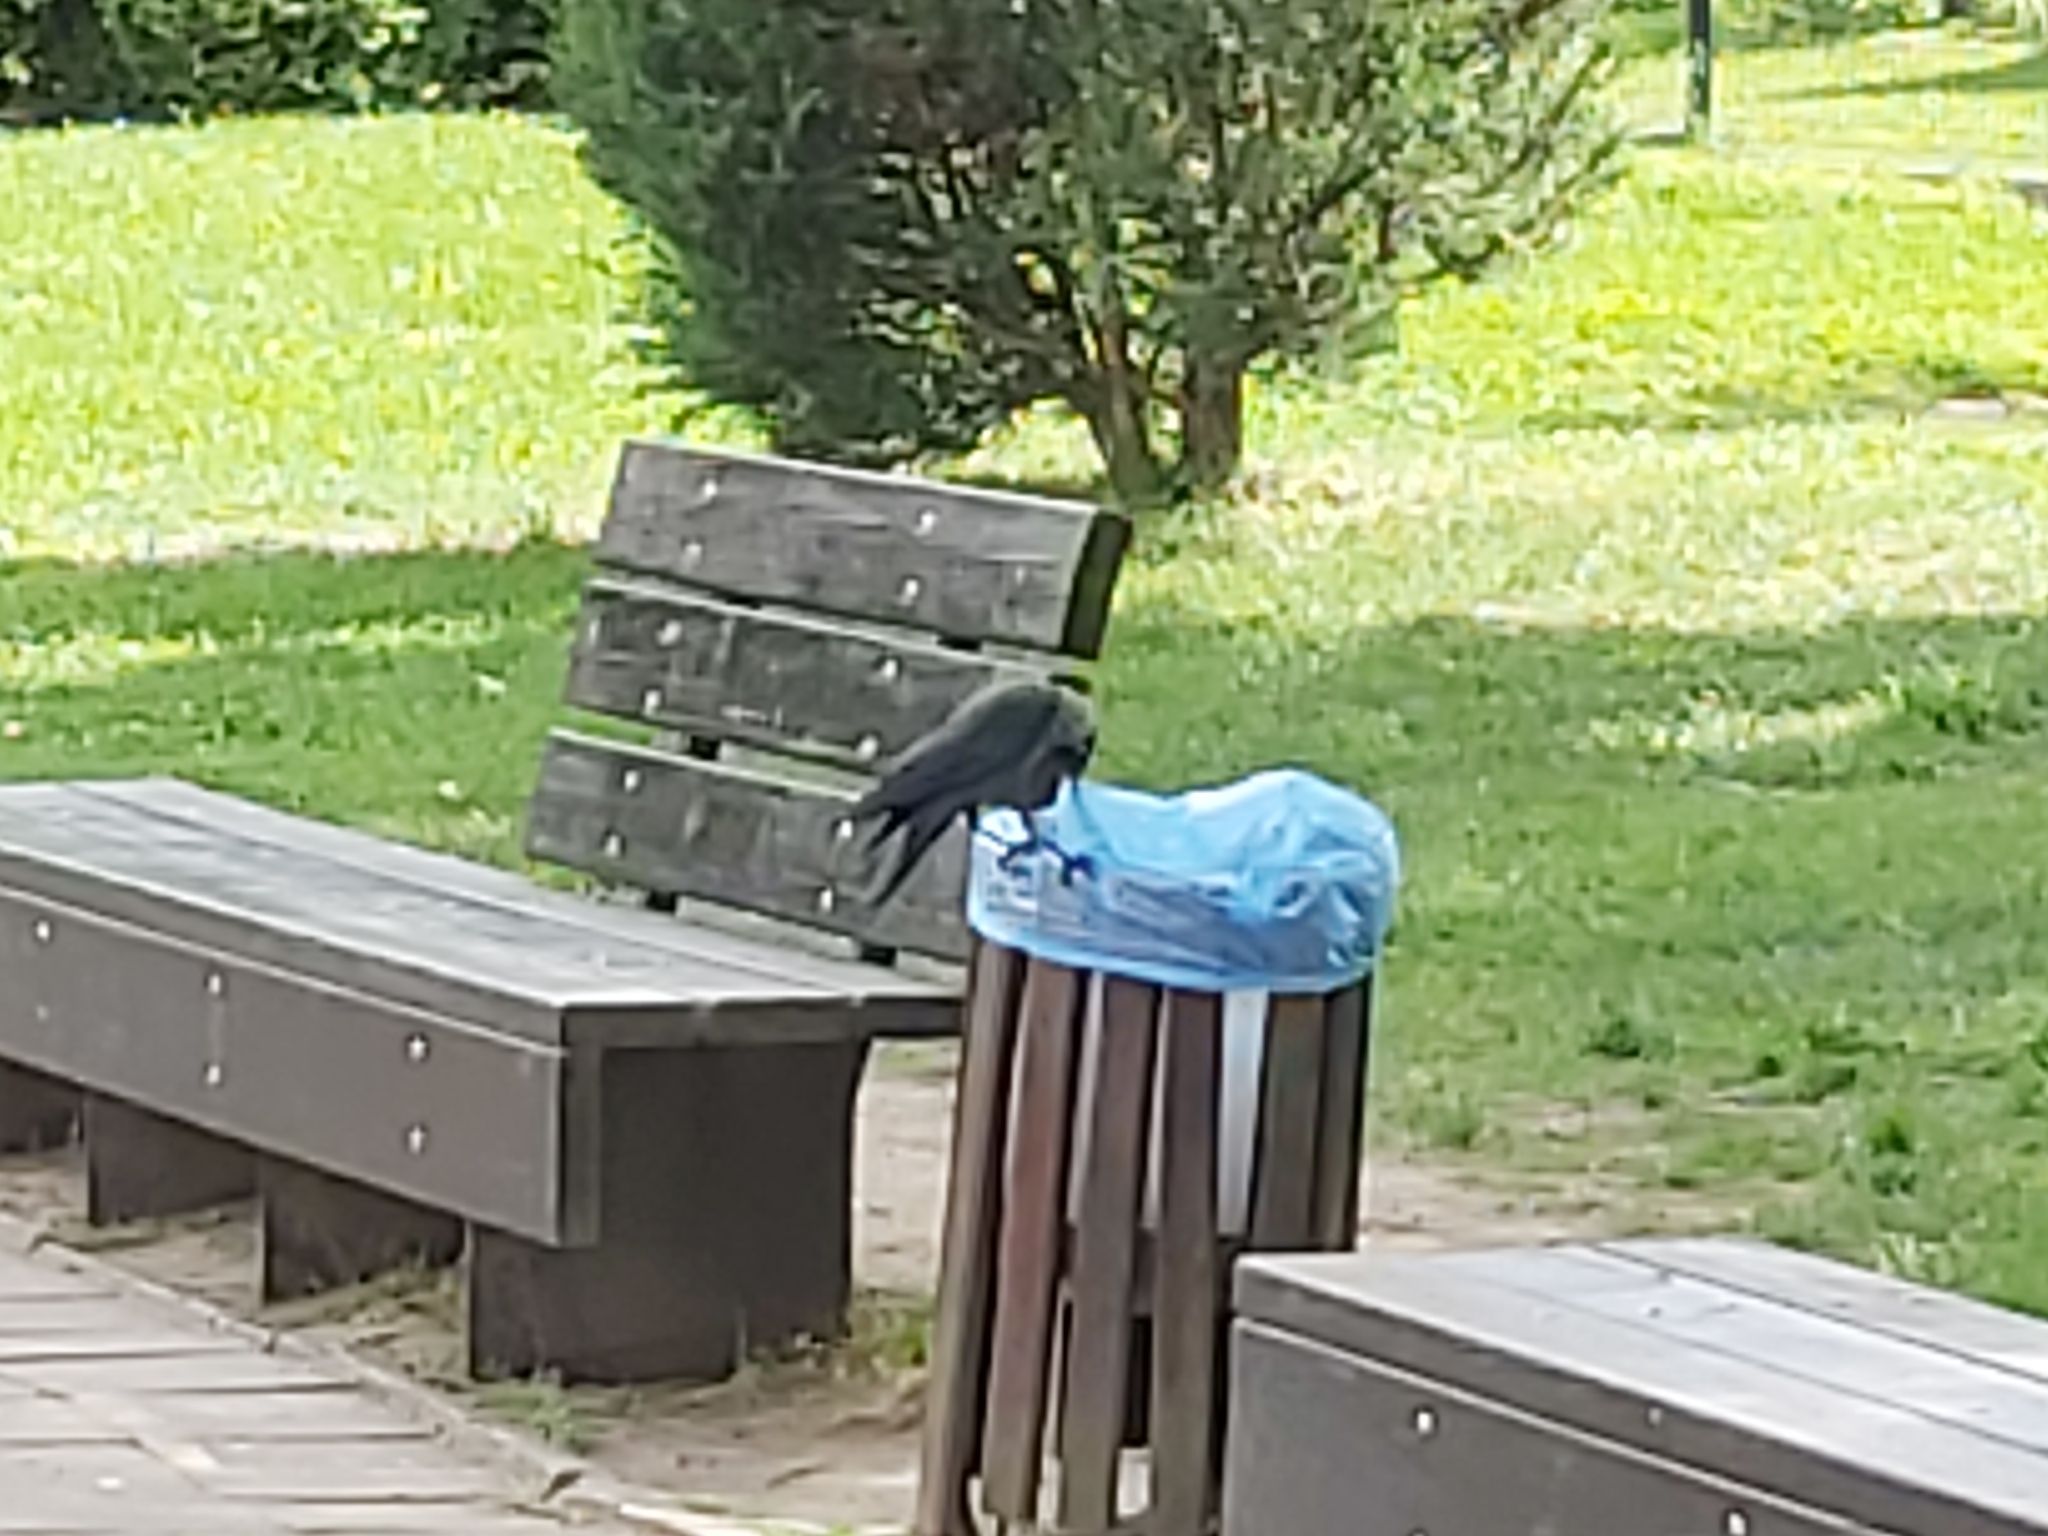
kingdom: Animalia
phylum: Chordata
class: Aves
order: Passeriformes
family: Corvidae
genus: Coloeus
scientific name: Coloeus monedula
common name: Western jackdaw
